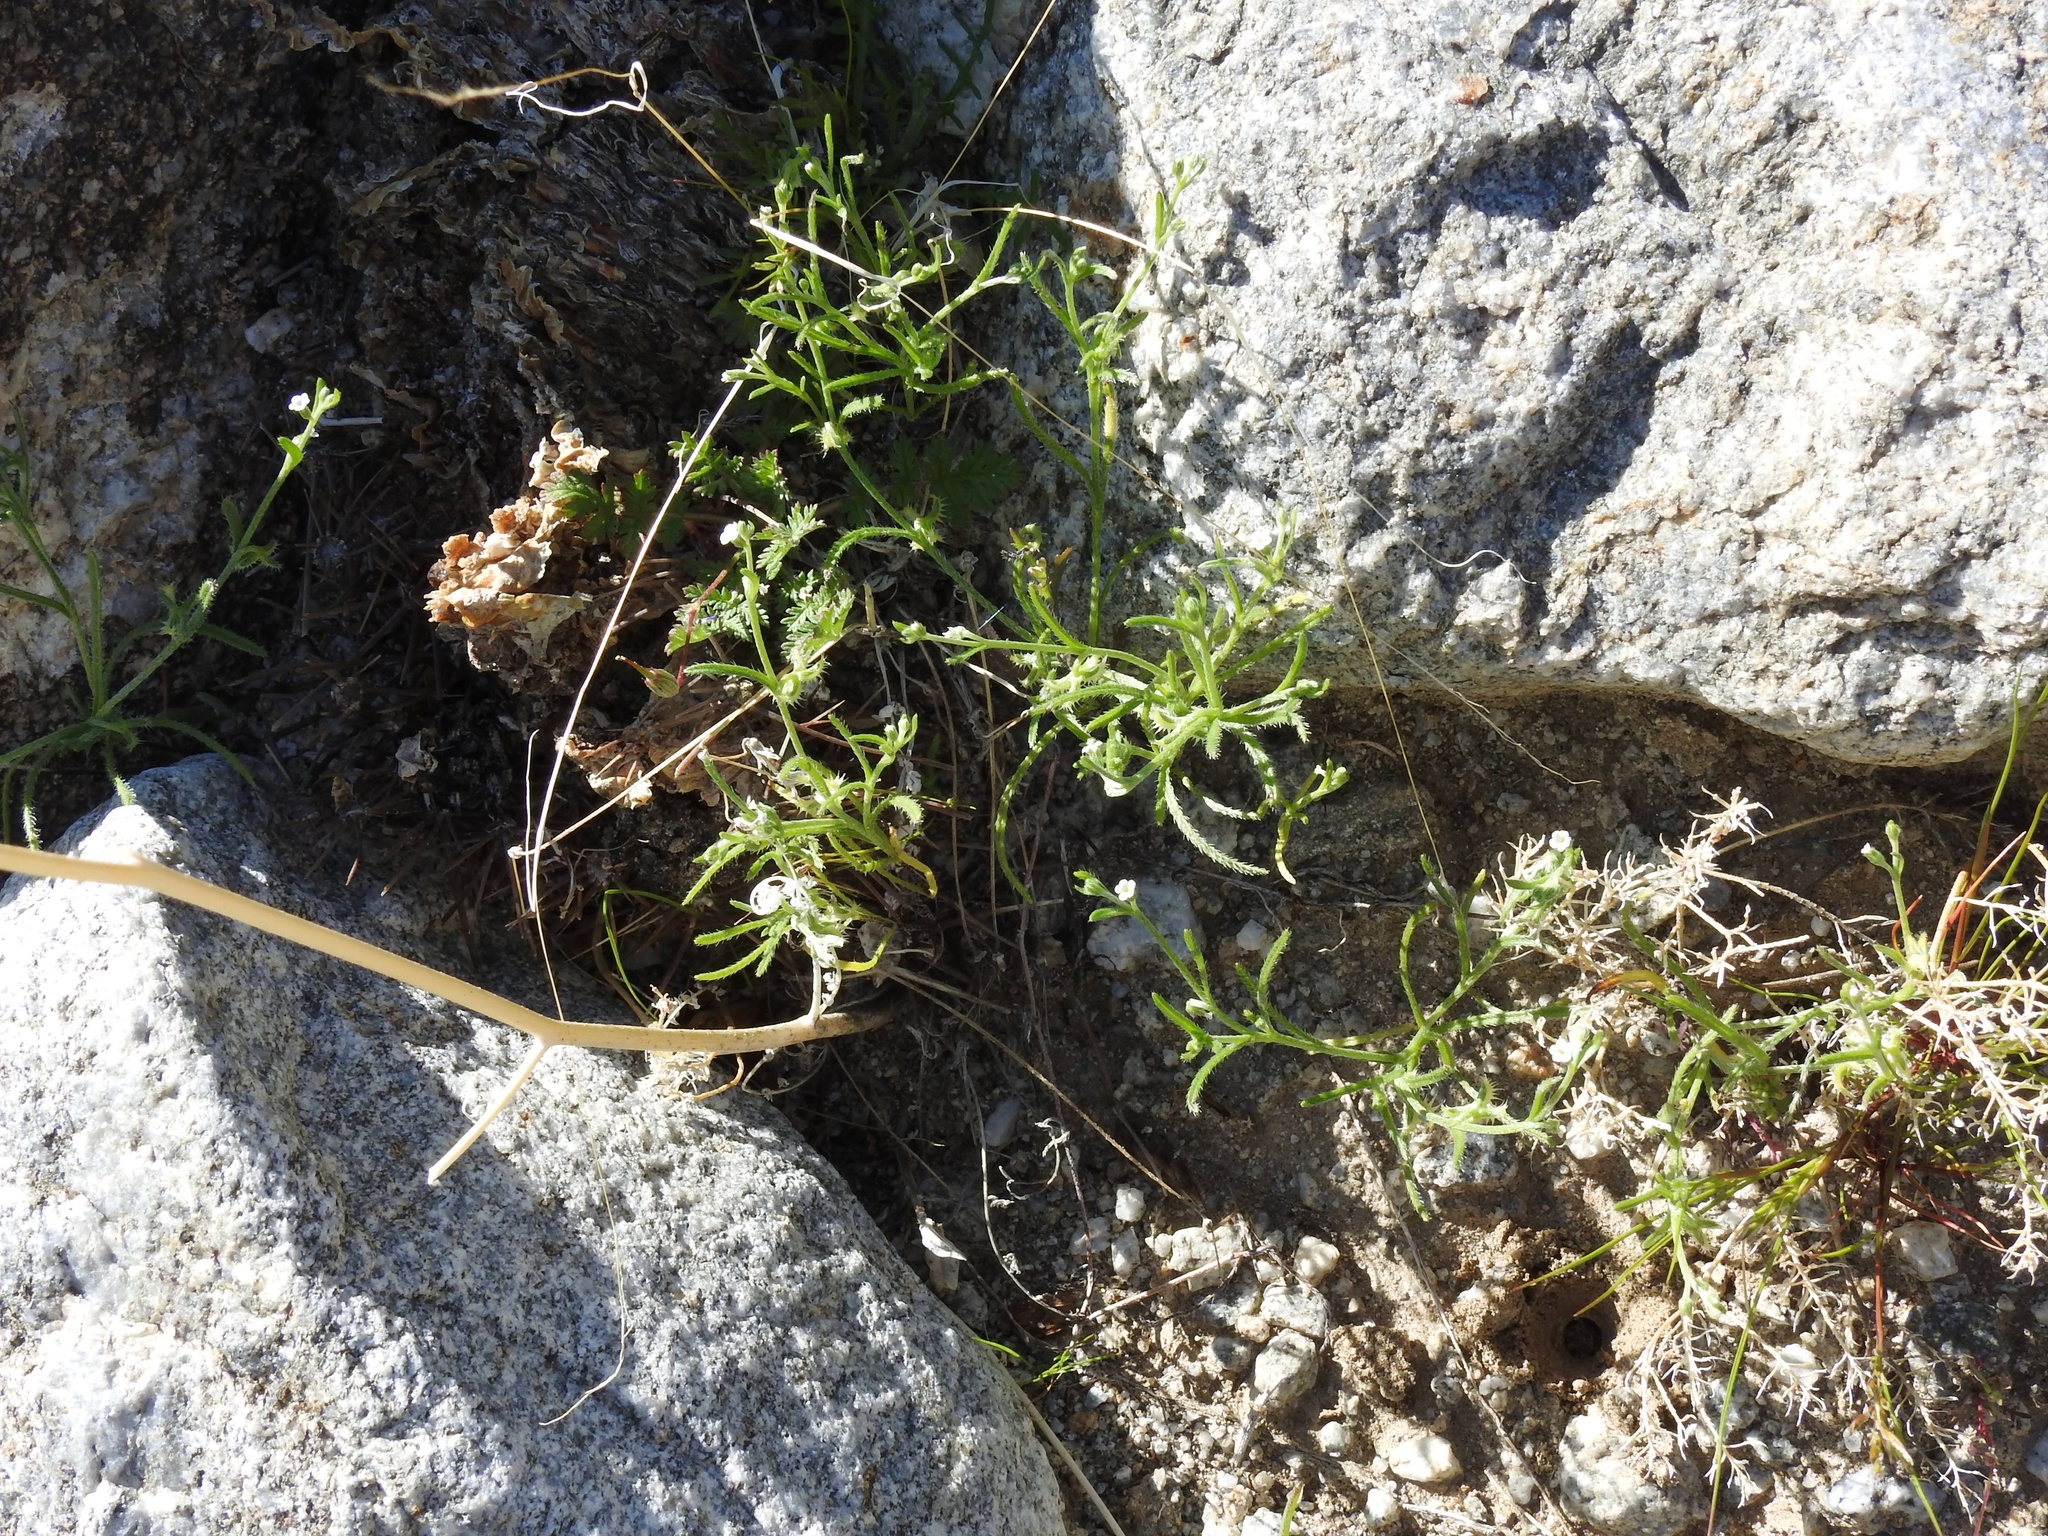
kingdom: Plantae
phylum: Tracheophyta
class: Magnoliopsida
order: Boraginales
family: Boraginaceae
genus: Pectocarya
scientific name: Pectocarya recurvata
